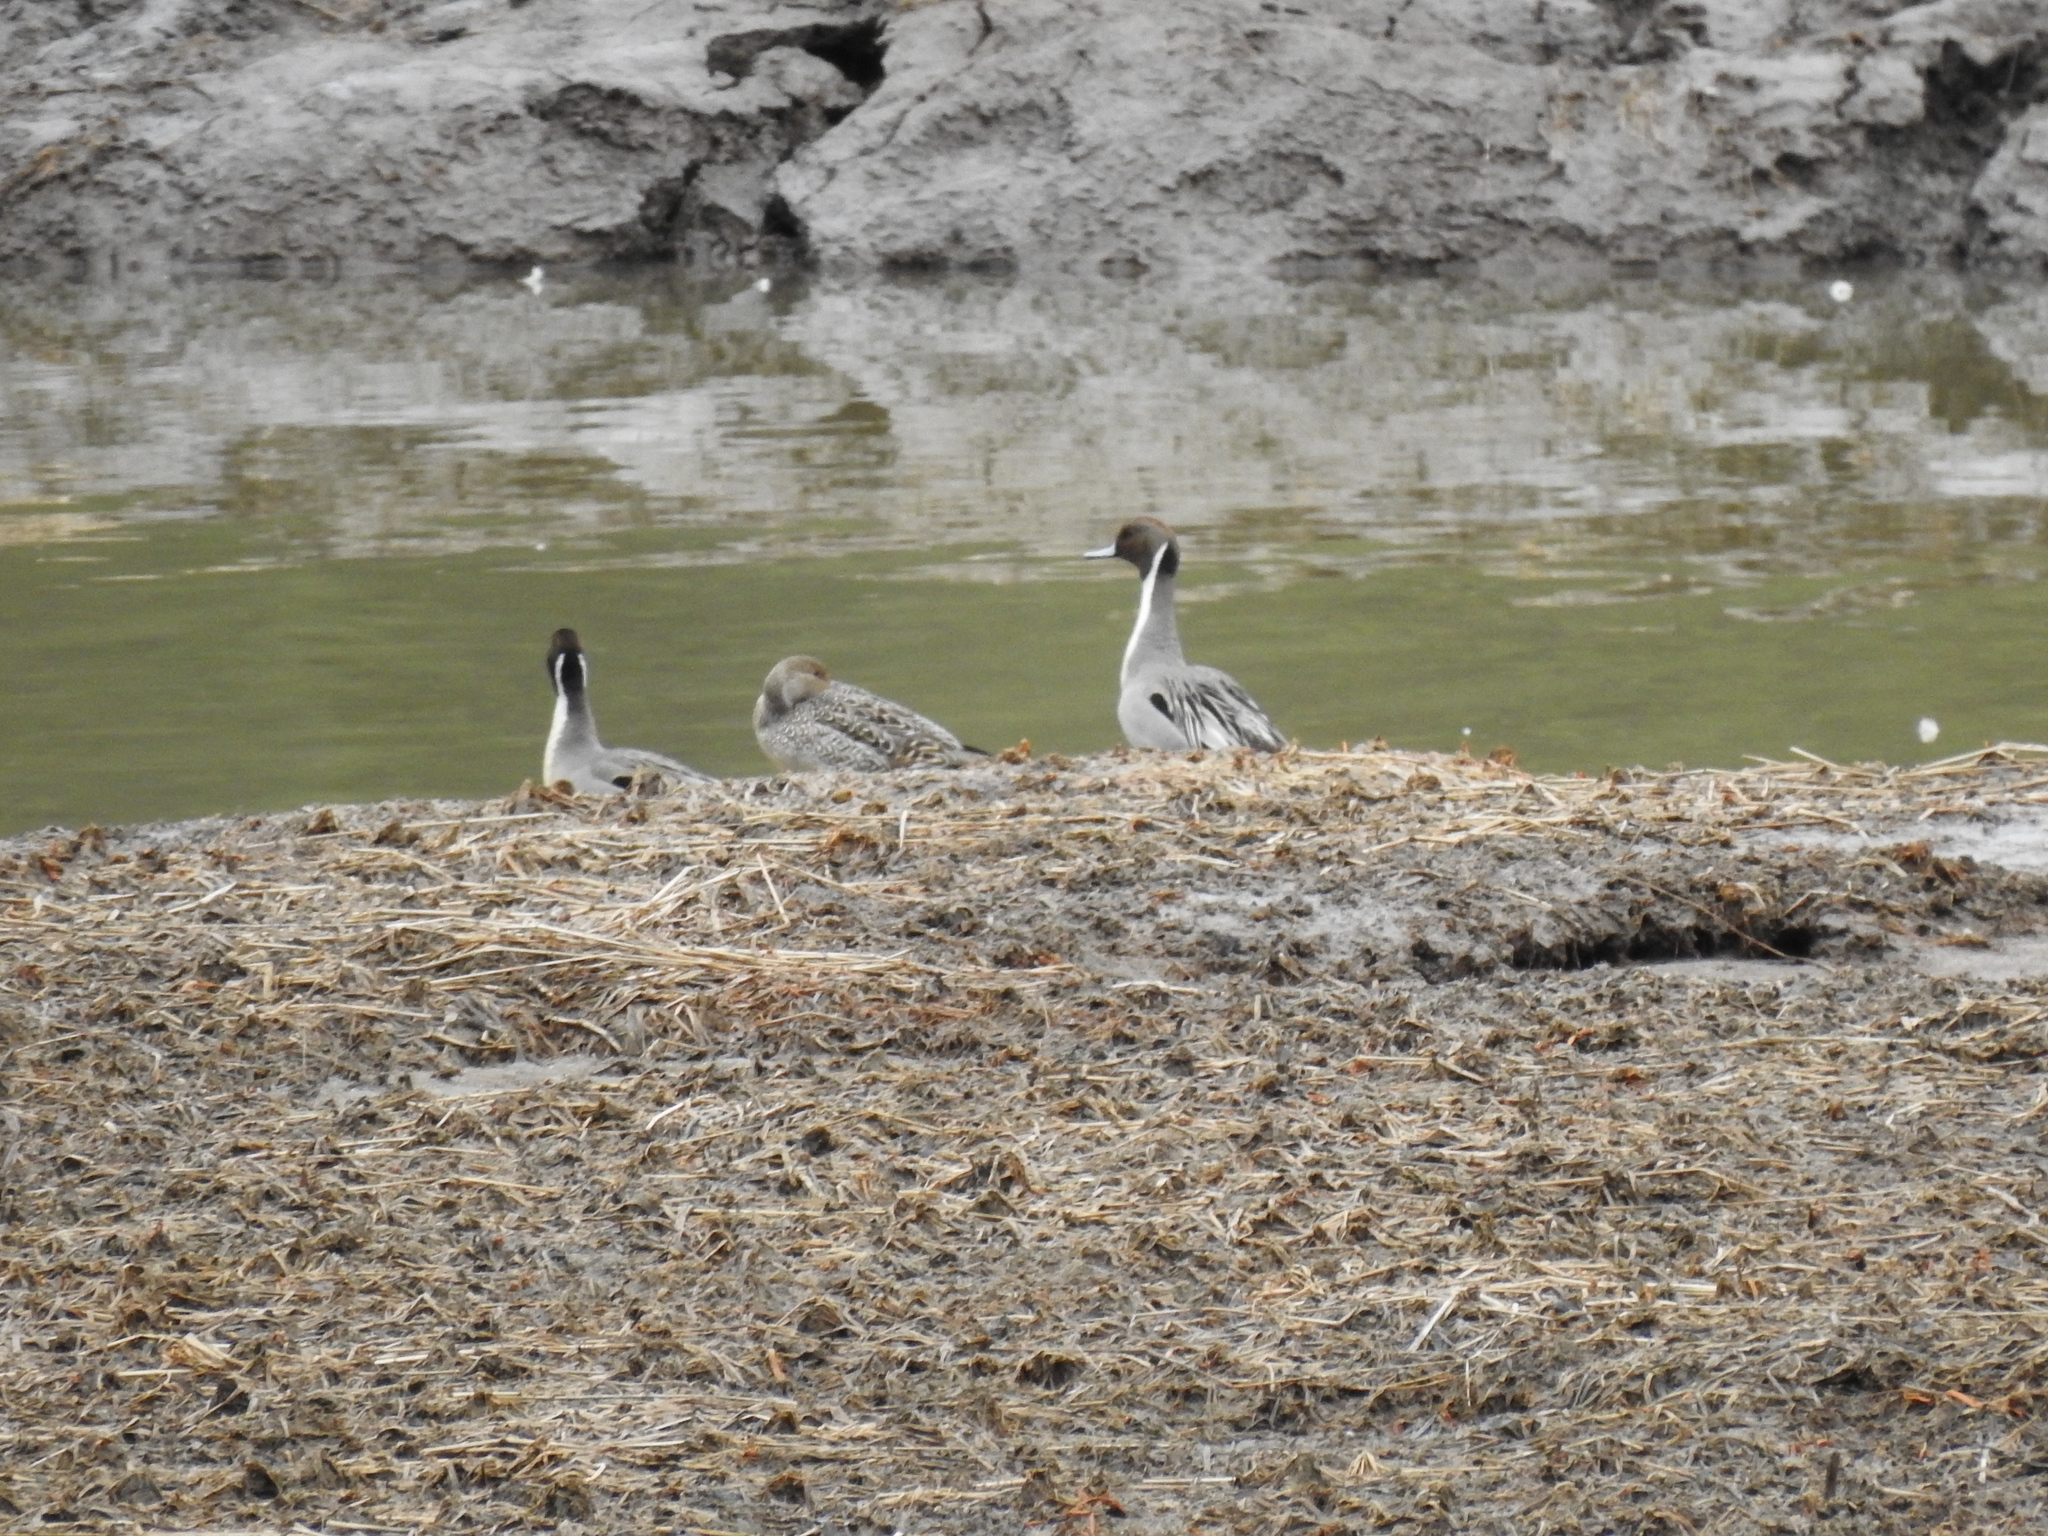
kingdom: Animalia
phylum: Chordata
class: Aves
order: Anseriformes
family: Anatidae
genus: Anas
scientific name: Anas acuta
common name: Northern pintail
